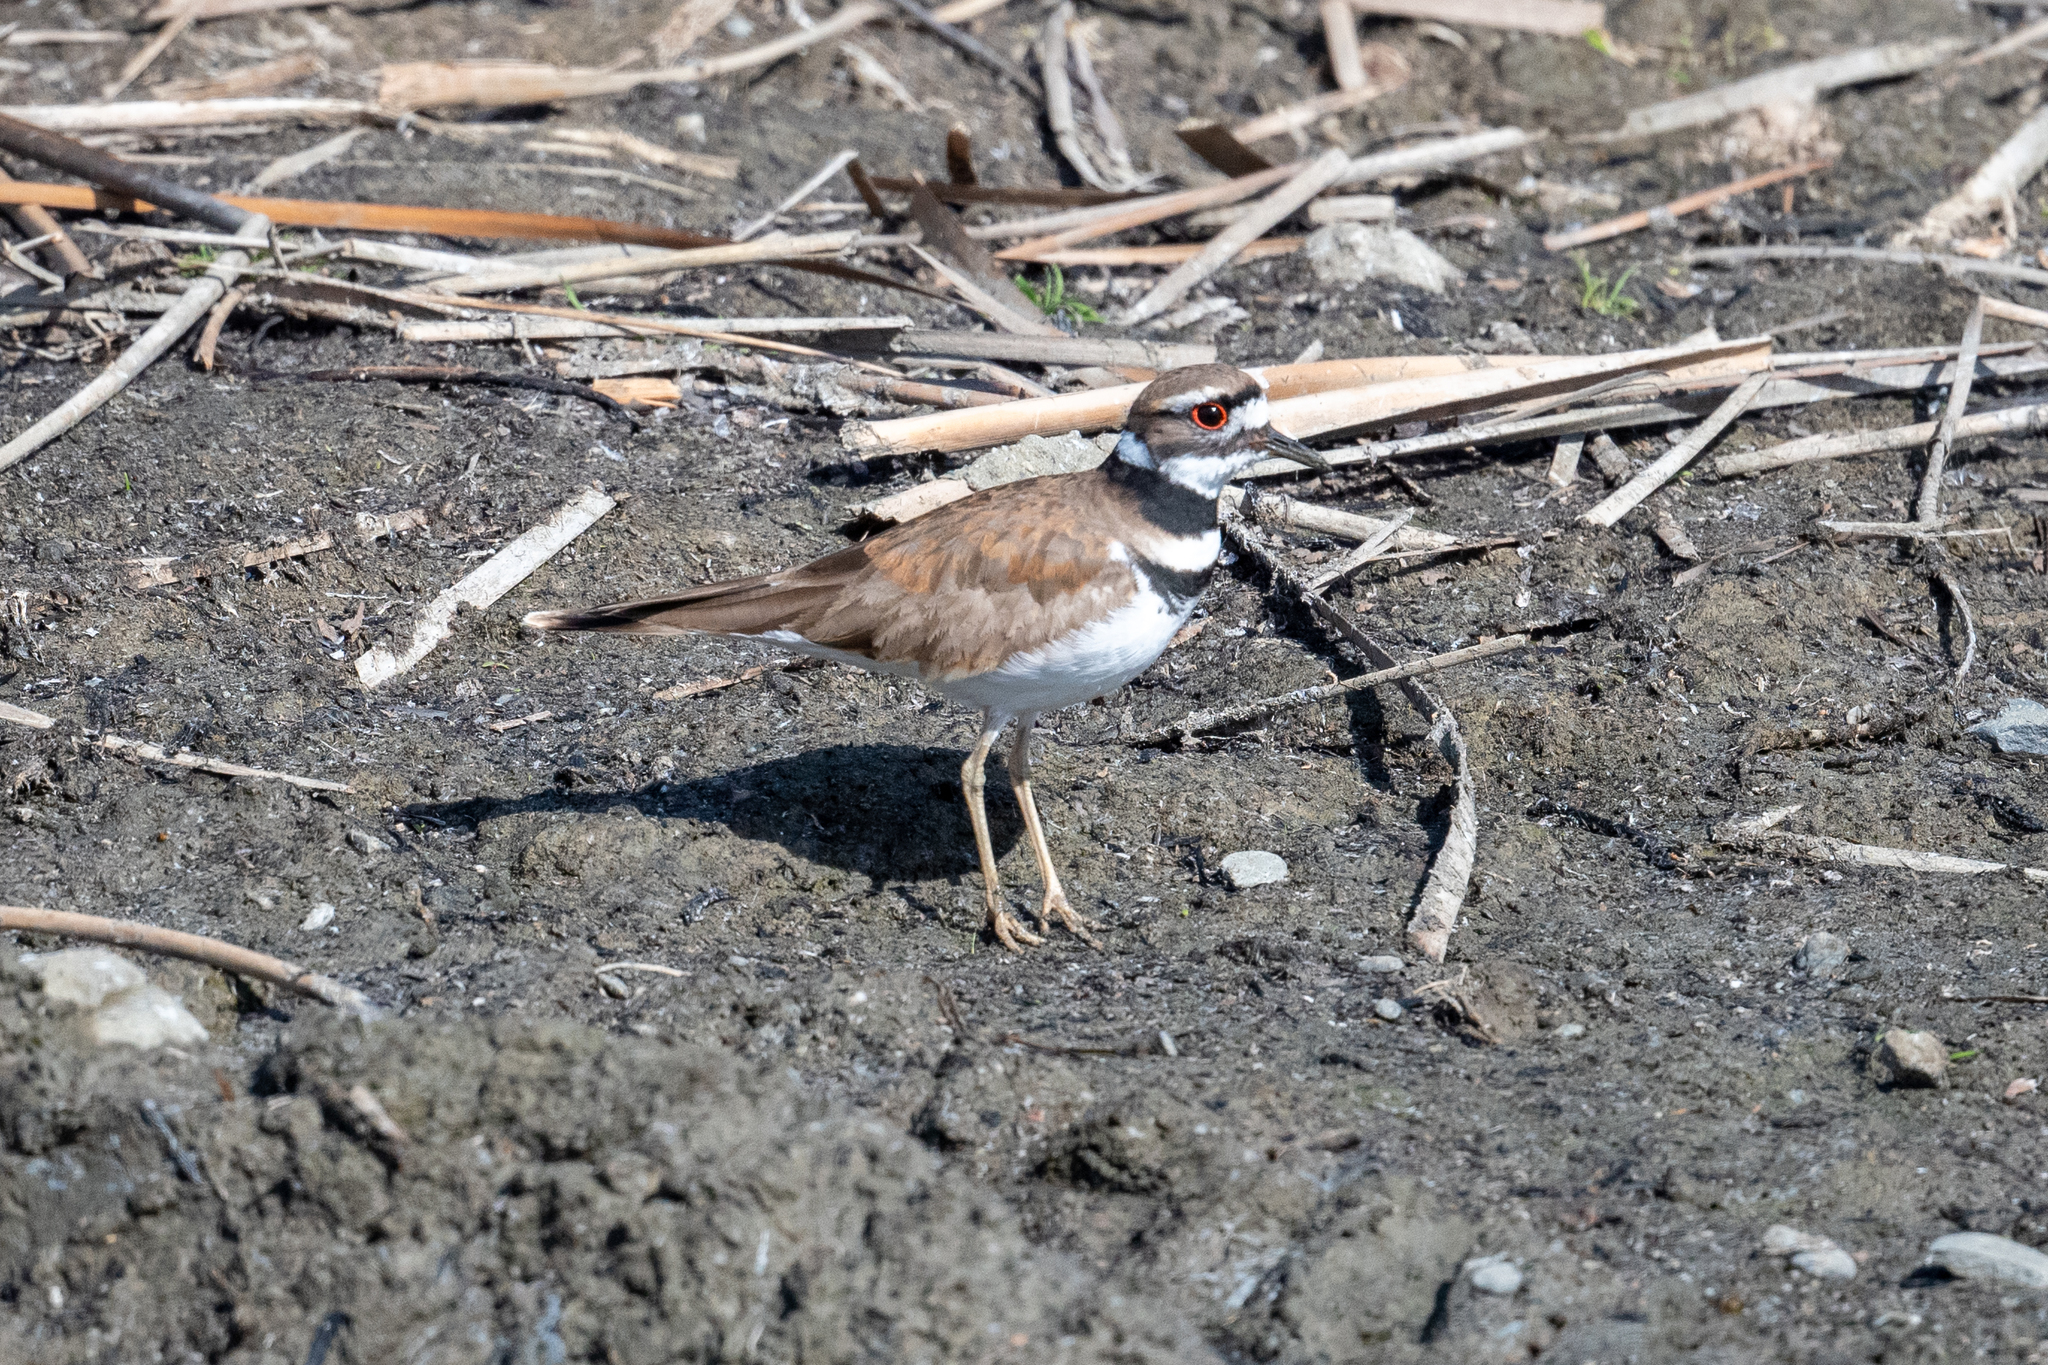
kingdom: Animalia
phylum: Chordata
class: Aves
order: Charadriiformes
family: Charadriidae
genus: Charadrius
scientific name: Charadrius vociferus
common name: Killdeer
